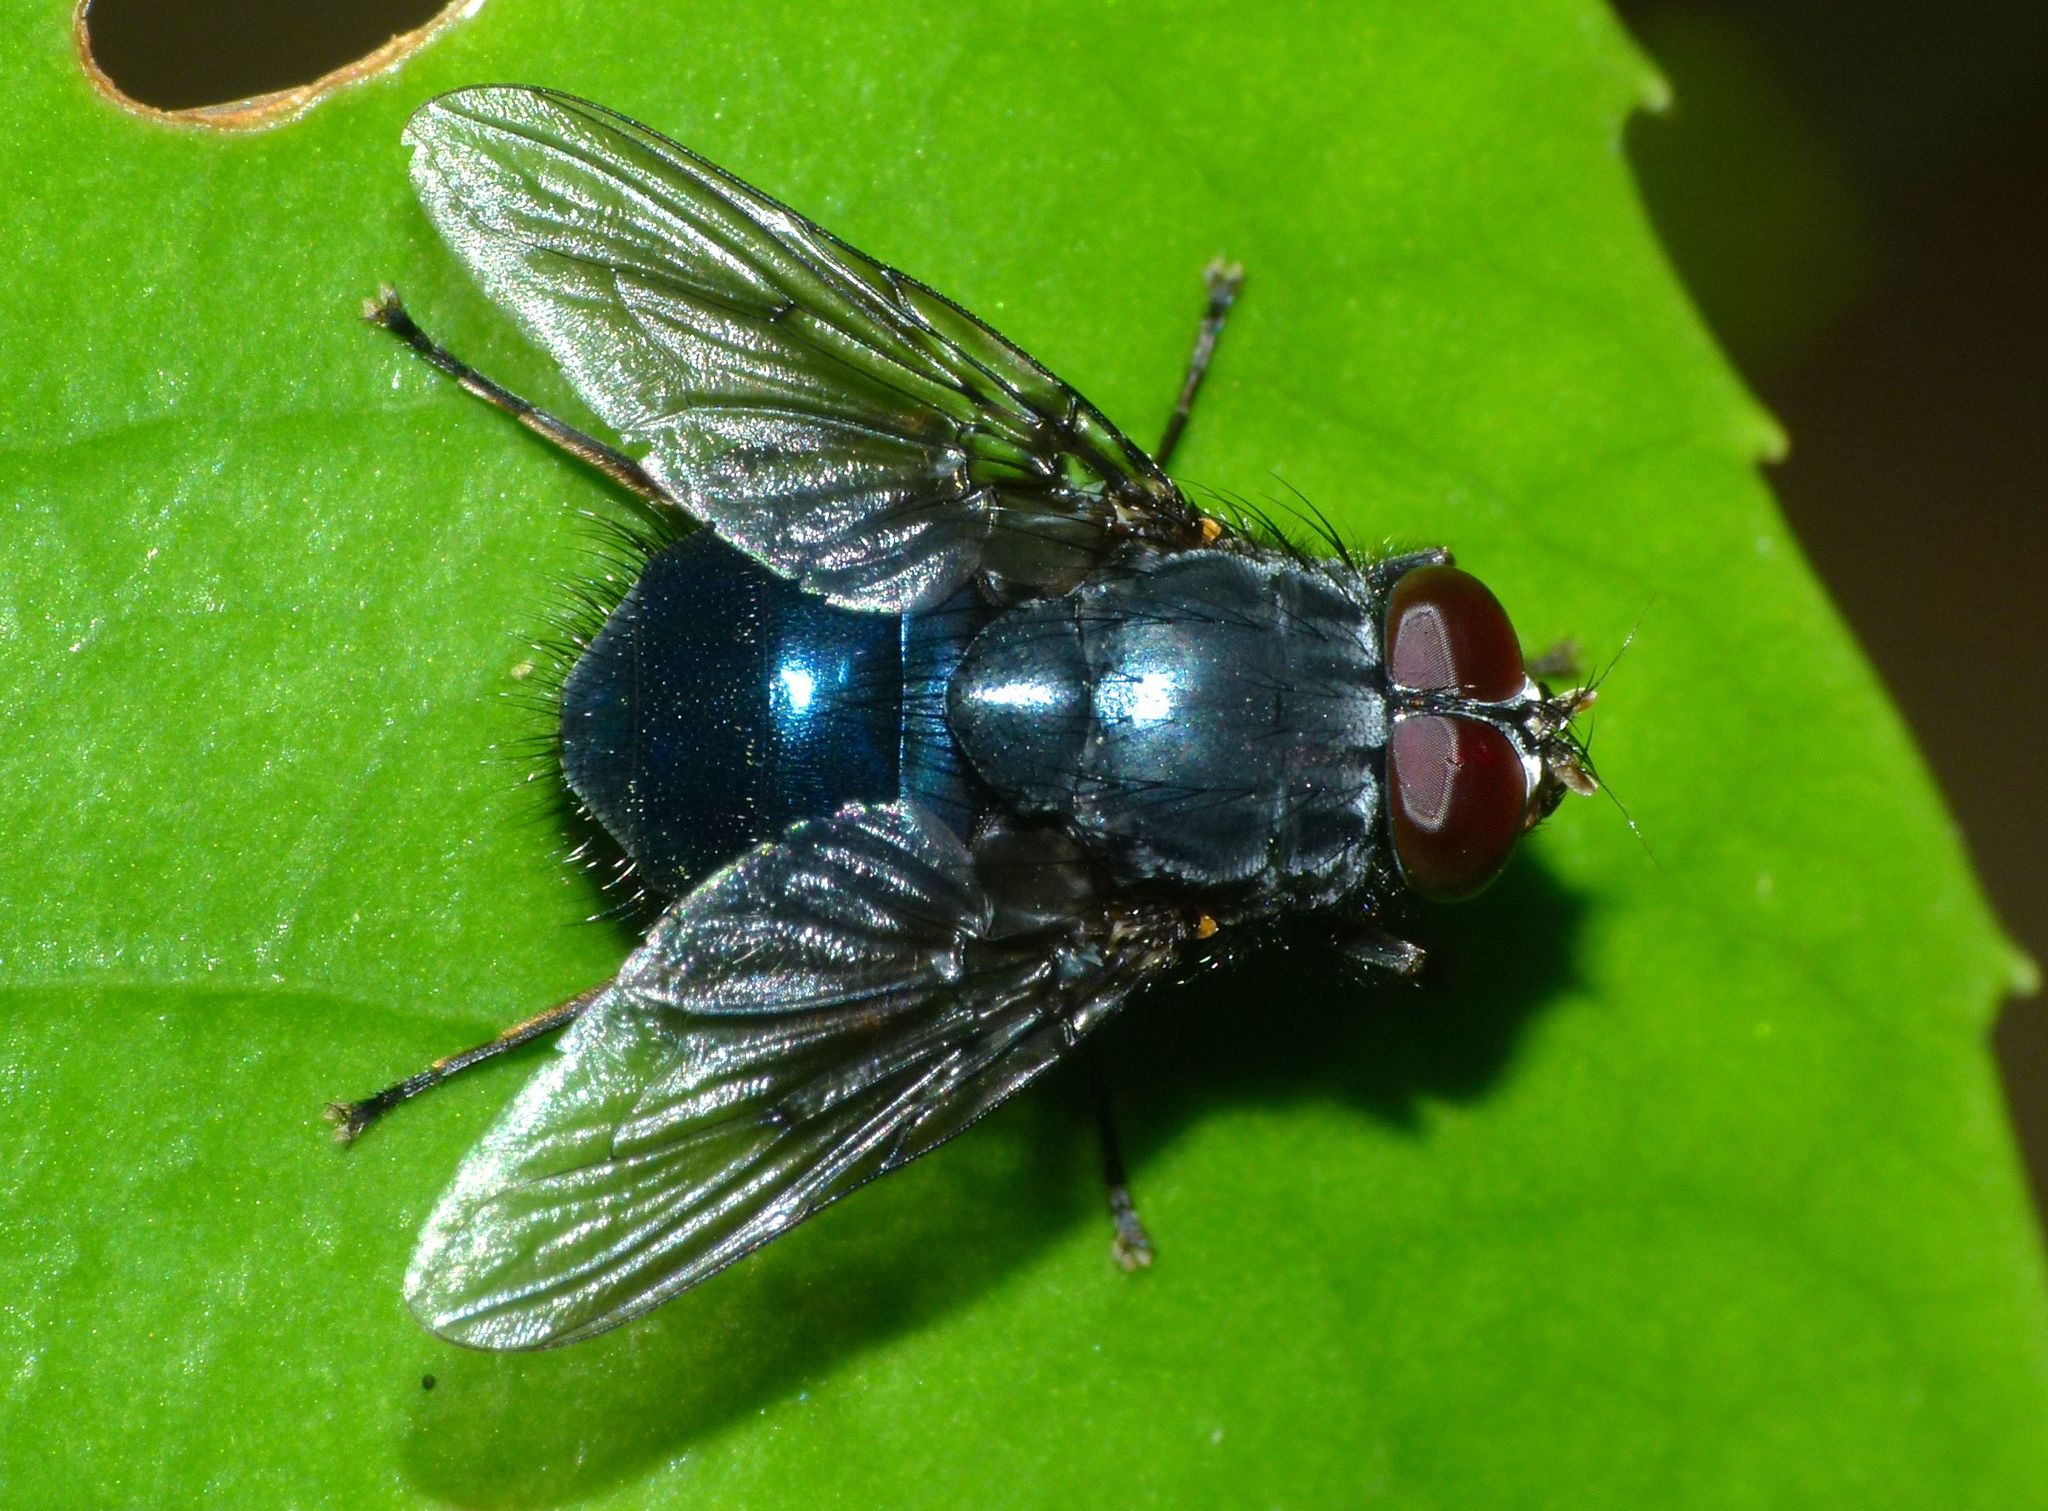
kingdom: Animalia
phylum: Arthropoda
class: Insecta
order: Diptera
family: Muscidae
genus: Calliphoroides
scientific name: Calliphoroides antennatis
